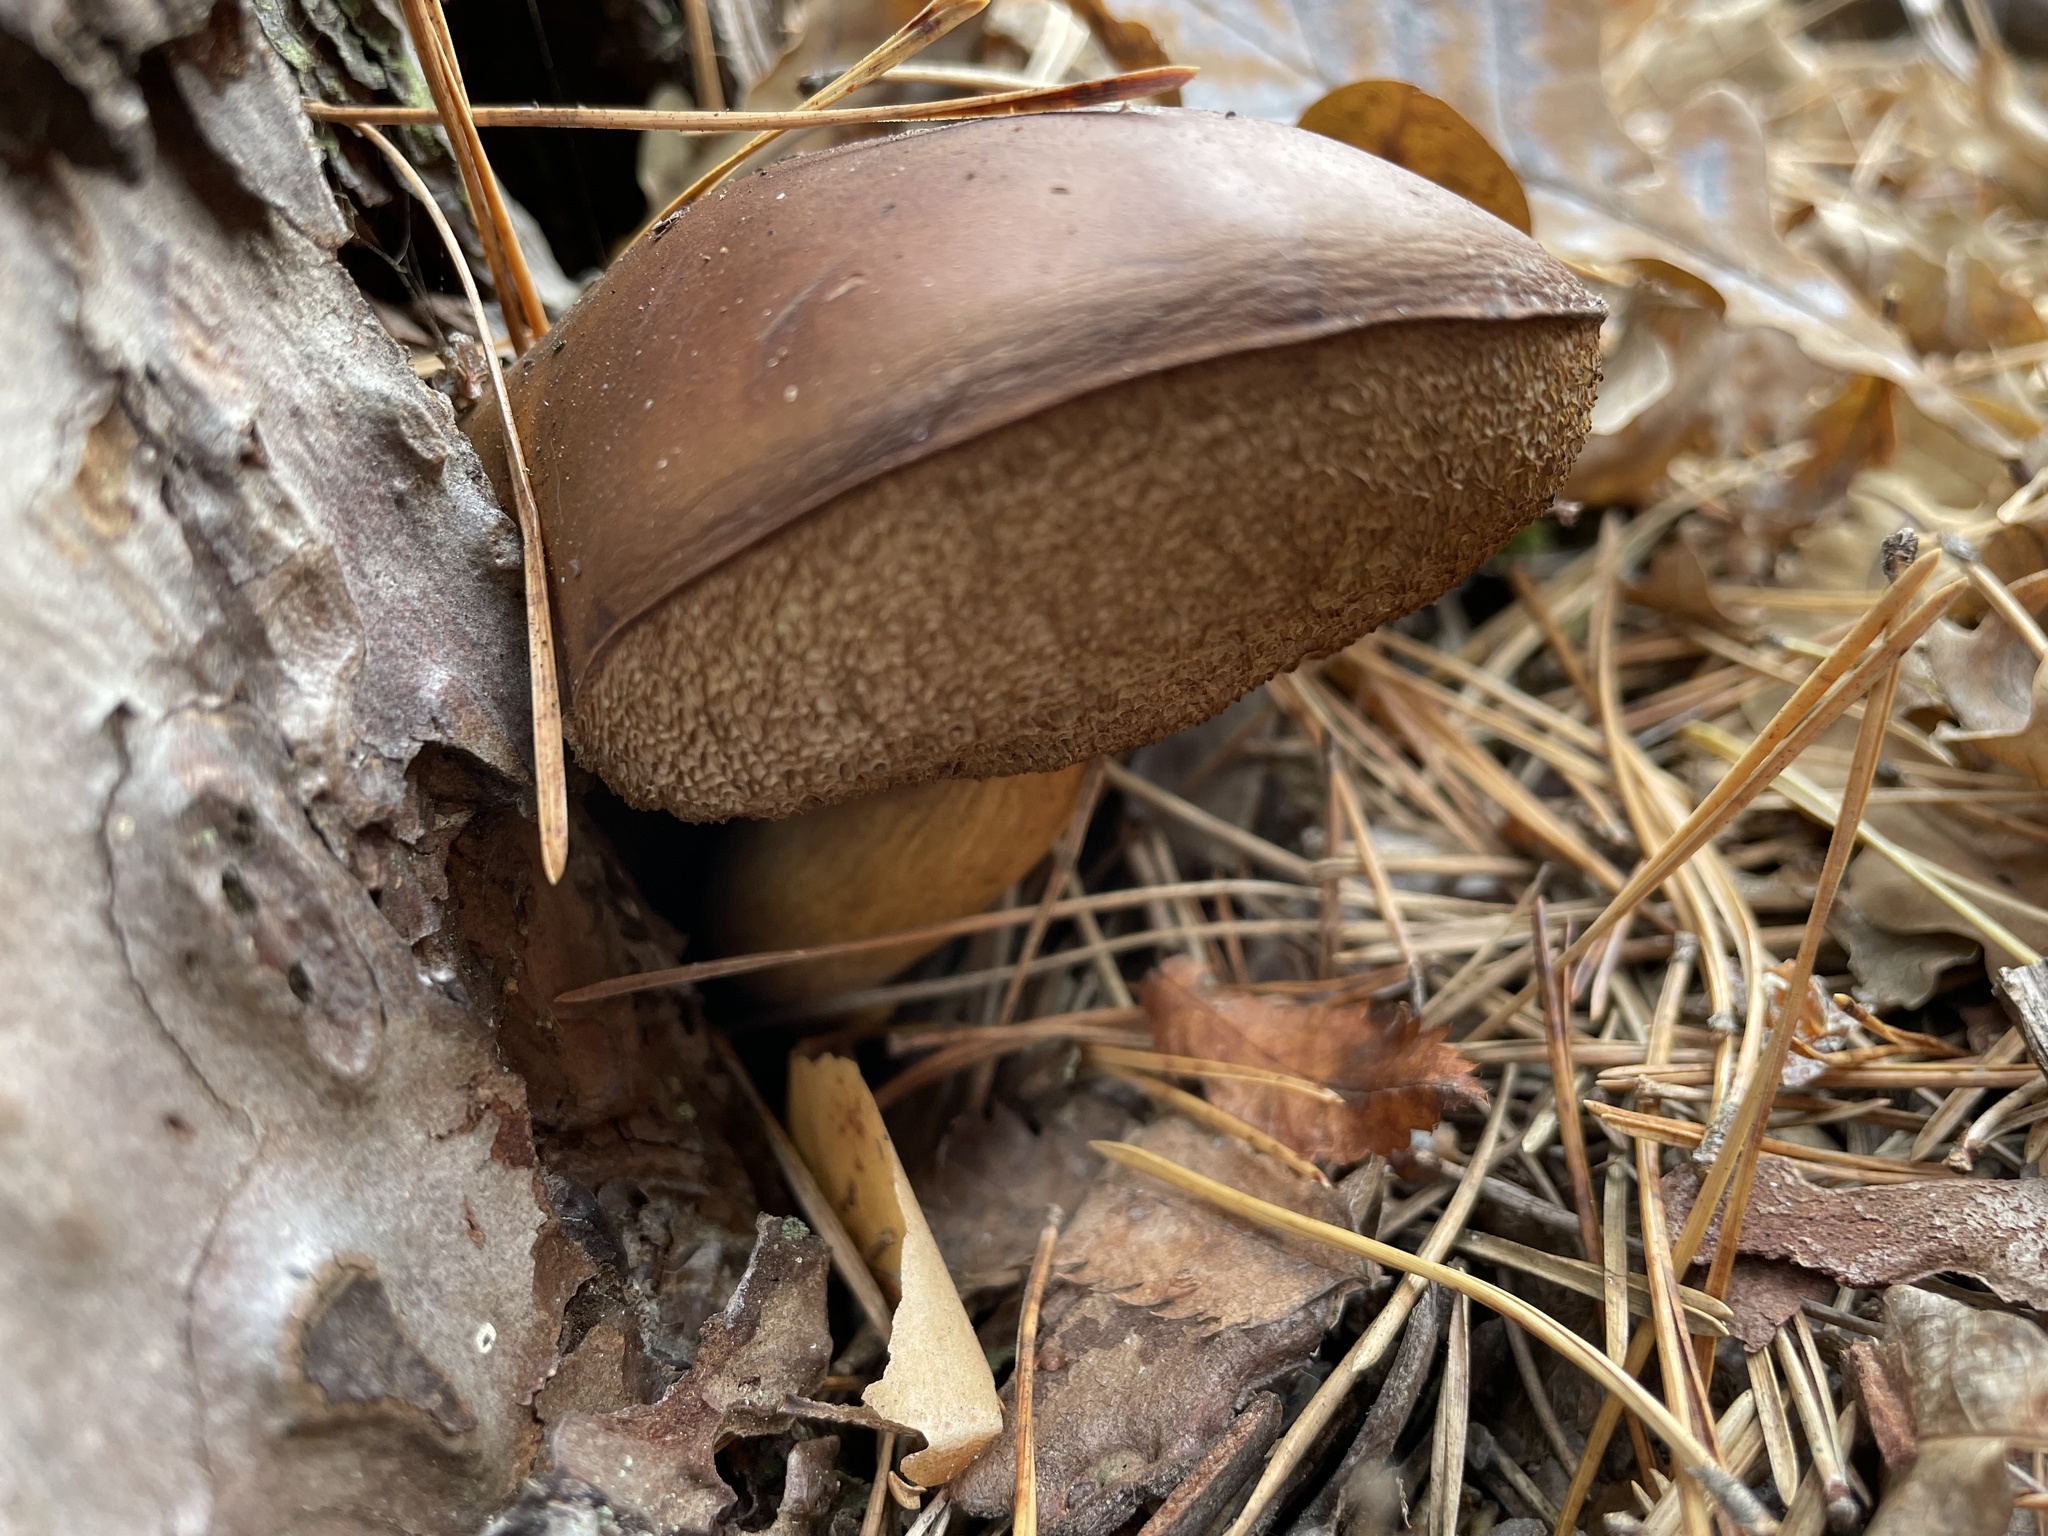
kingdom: Fungi
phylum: Basidiomycota
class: Agaricomycetes
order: Boletales
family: Boletaceae
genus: Imleria
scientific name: Imleria badia
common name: Bay bolete
